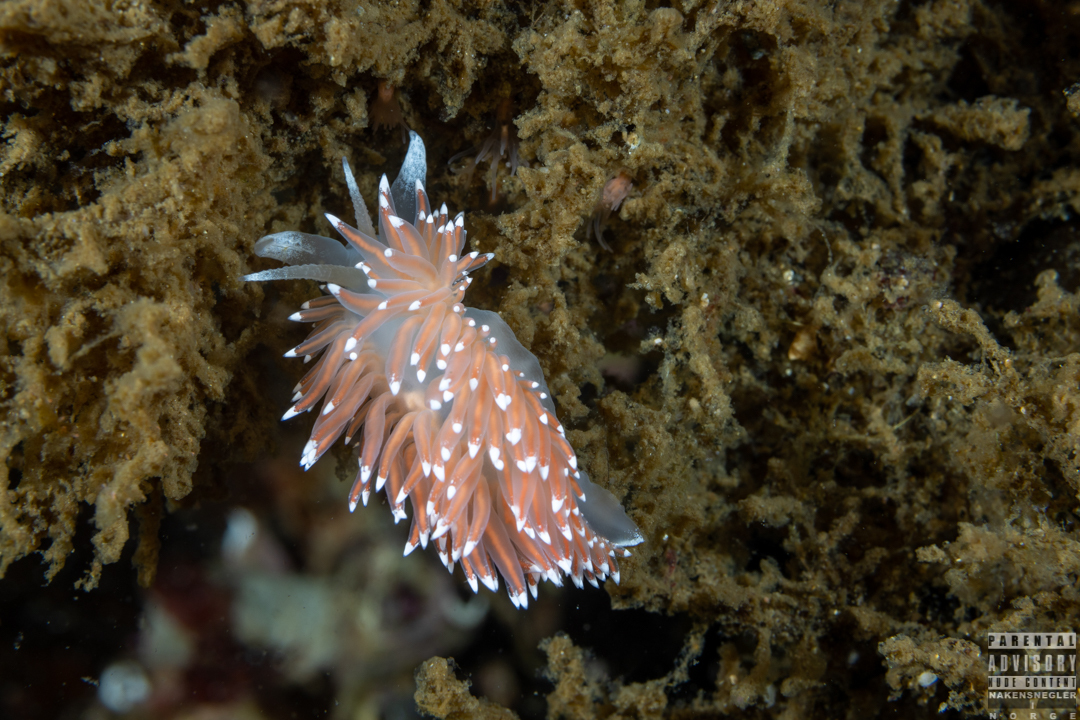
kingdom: Animalia
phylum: Mollusca
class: Gastropoda
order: Nudibranchia
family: Coryphellidae
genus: Coryphella
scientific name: Coryphella nobilis
